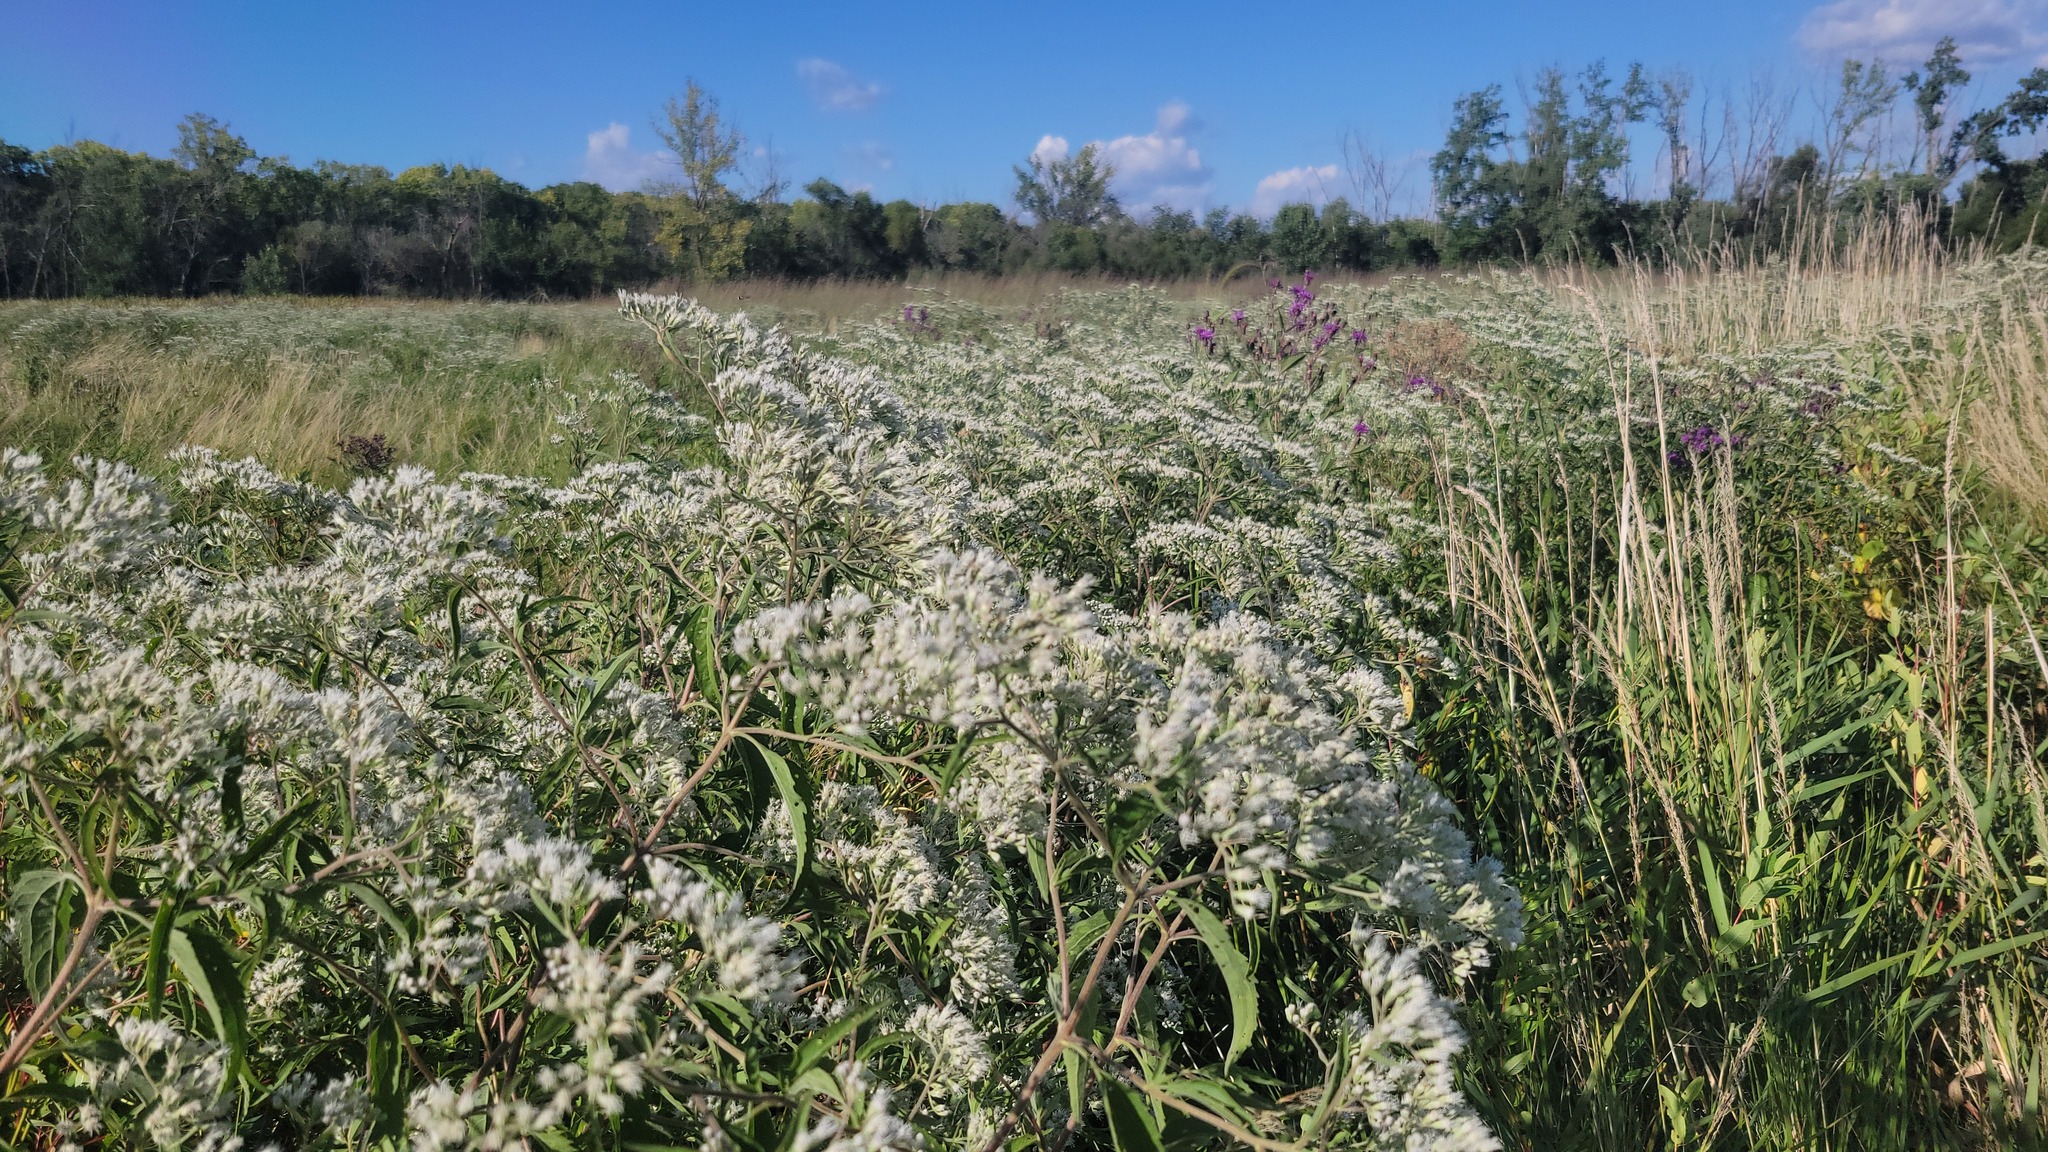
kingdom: Plantae
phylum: Tracheophyta
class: Magnoliopsida
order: Asterales
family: Asteraceae
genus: Eupatorium
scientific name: Eupatorium serotinum
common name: Late boneset
